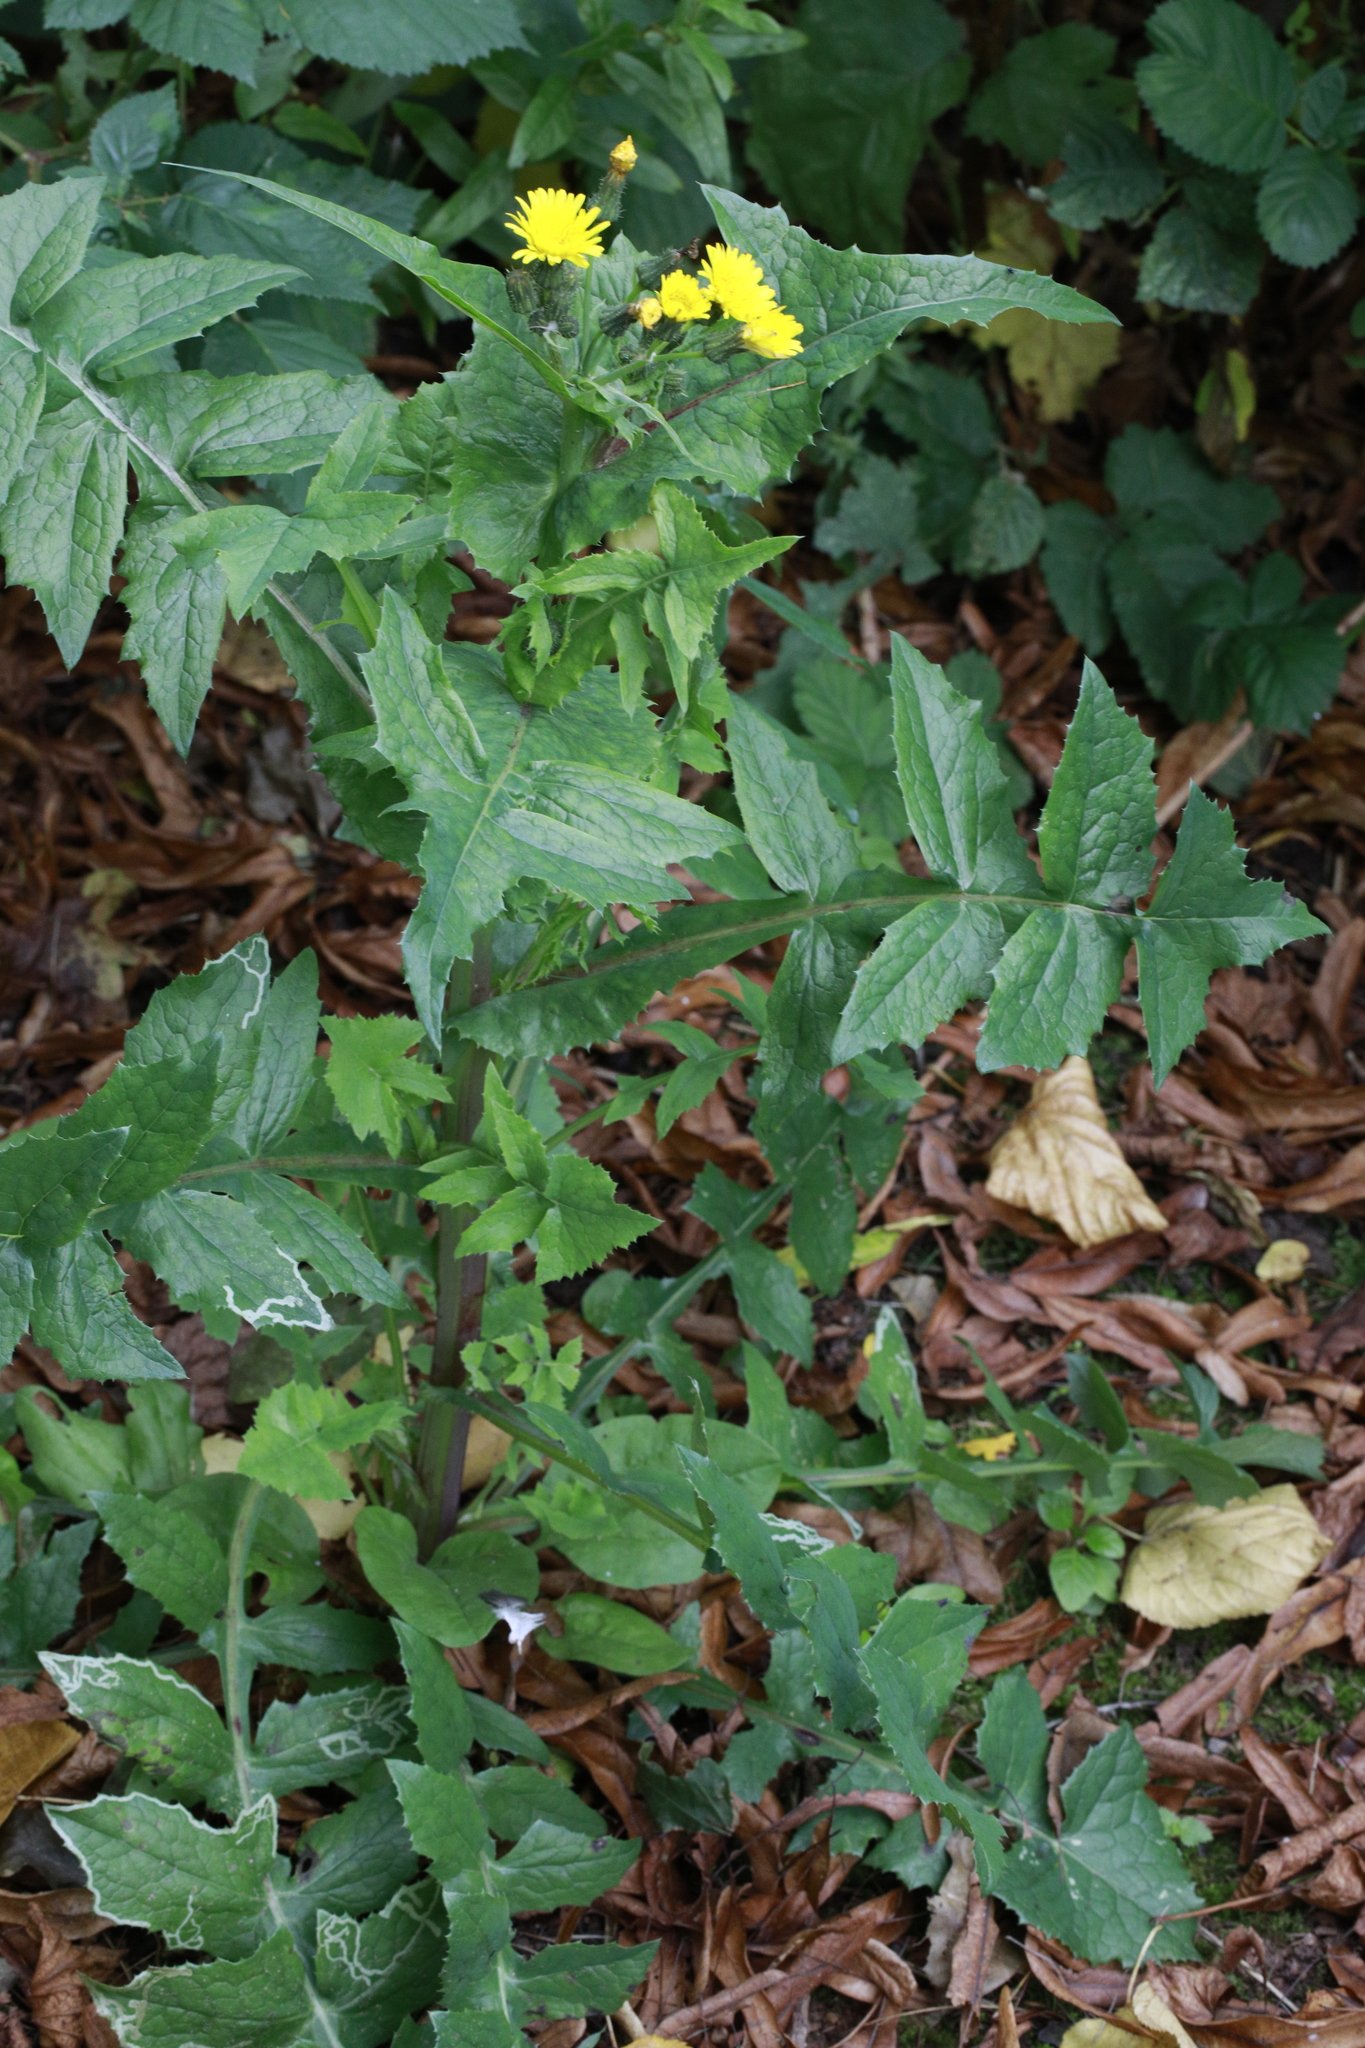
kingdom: Plantae
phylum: Tracheophyta
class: Magnoliopsida
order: Asterales
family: Asteraceae
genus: Sonchus
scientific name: Sonchus oleraceus
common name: Common sowthistle
